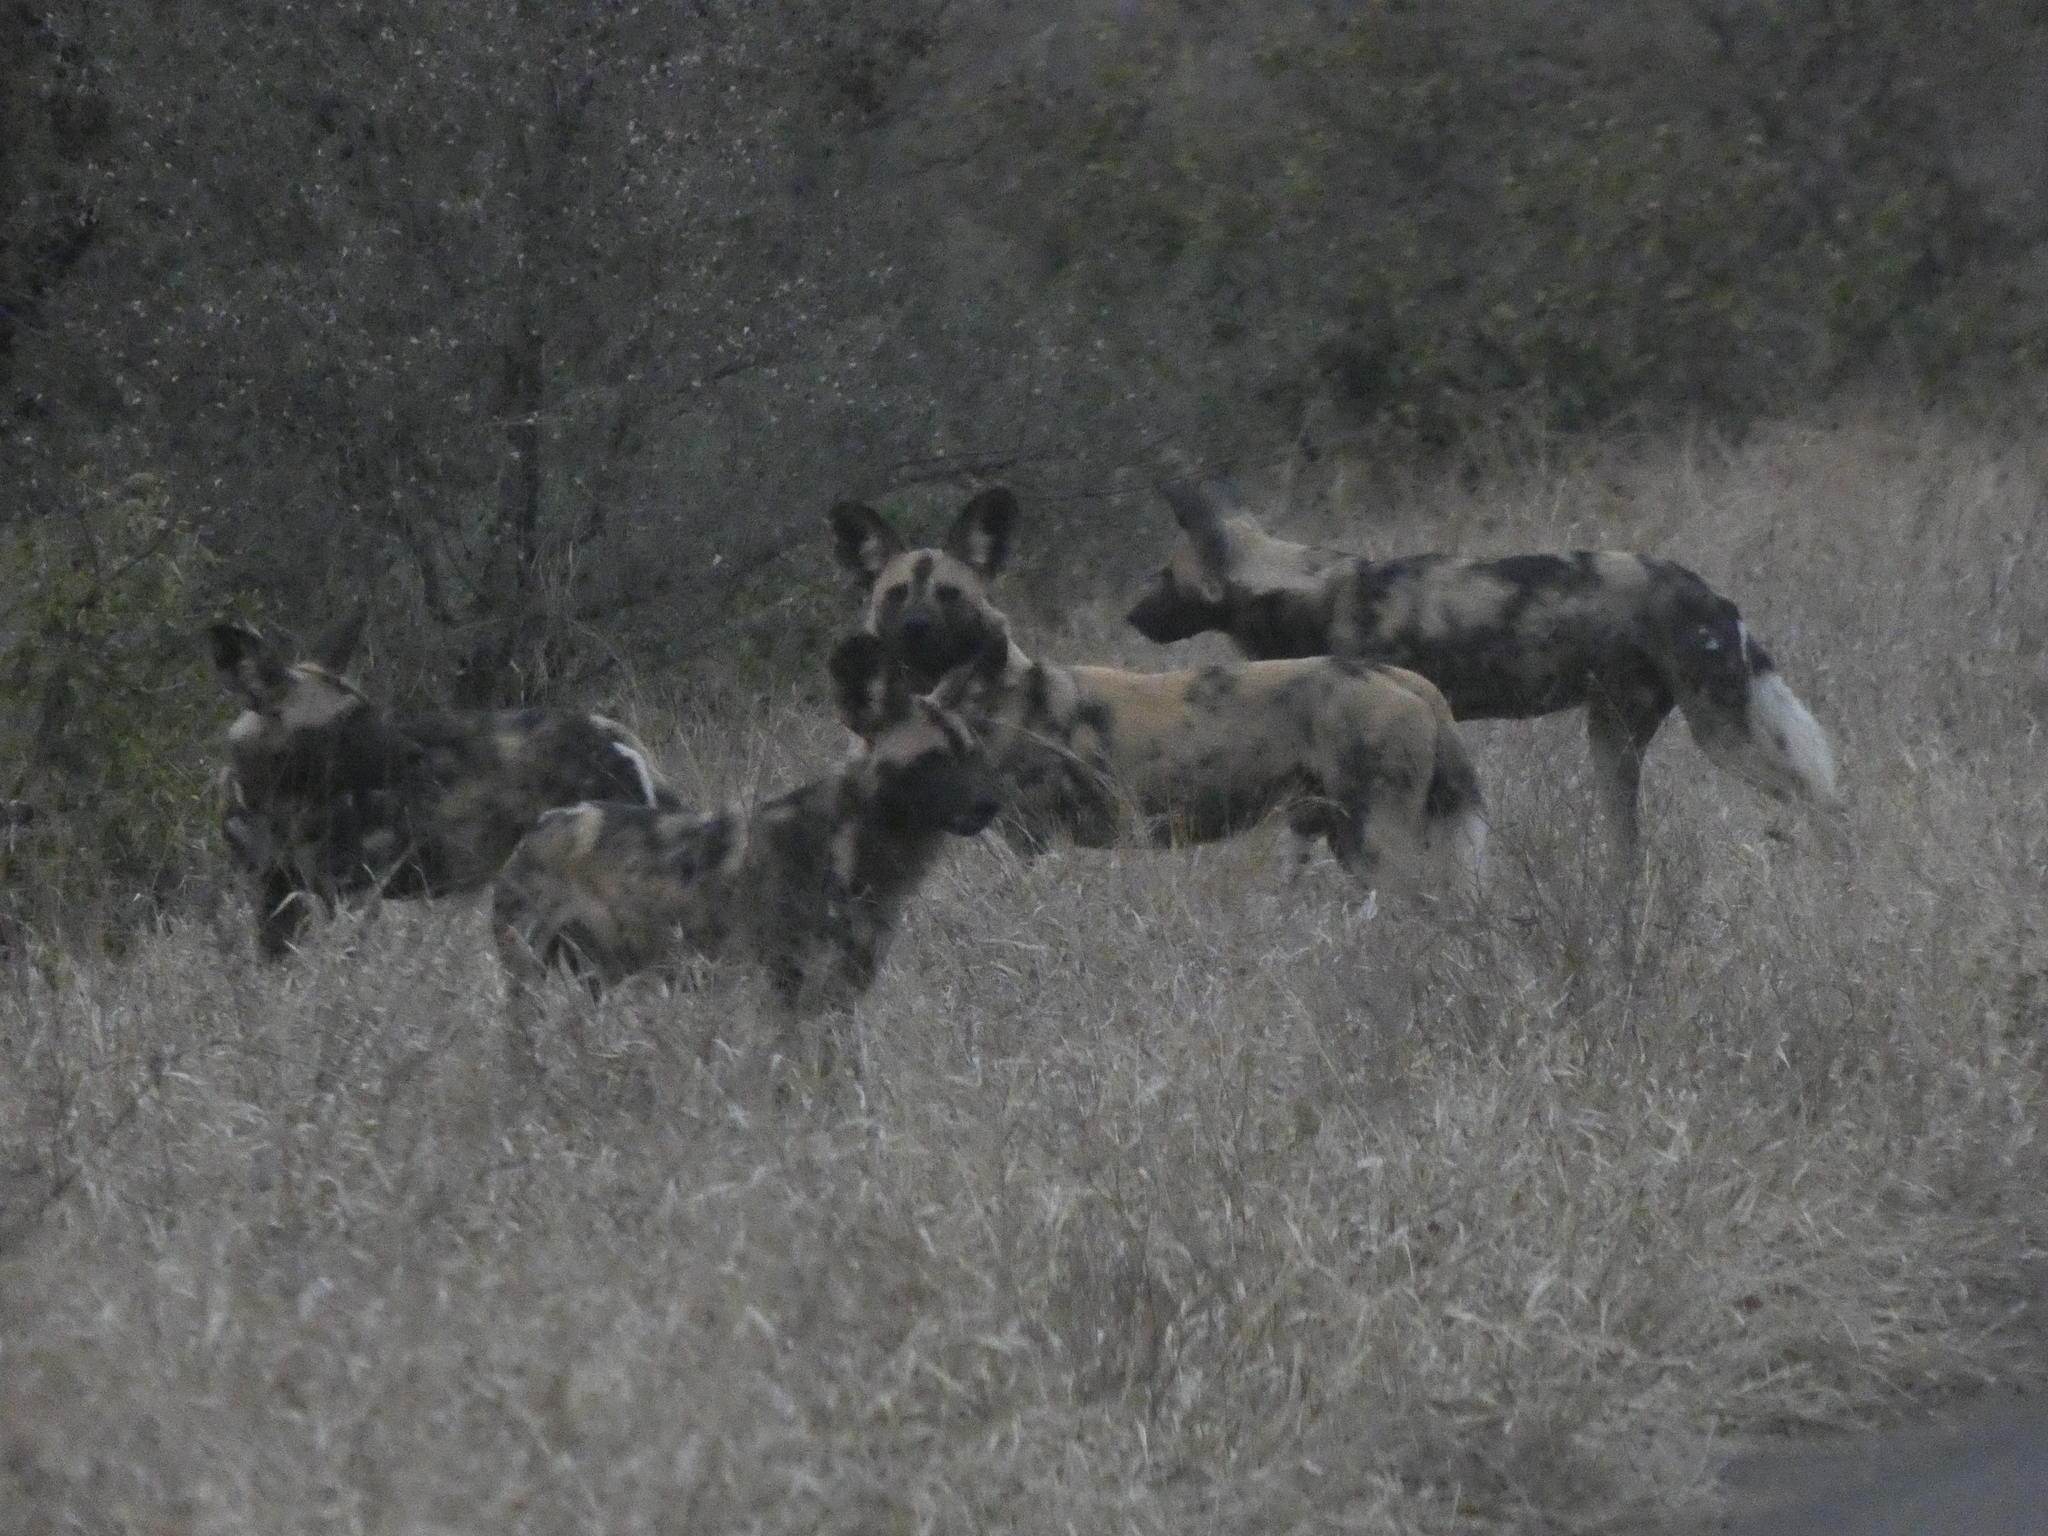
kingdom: Animalia
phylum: Chordata
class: Mammalia
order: Carnivora
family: Canidae
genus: Lycaon
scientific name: Lycaon pictus
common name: African wild dog
